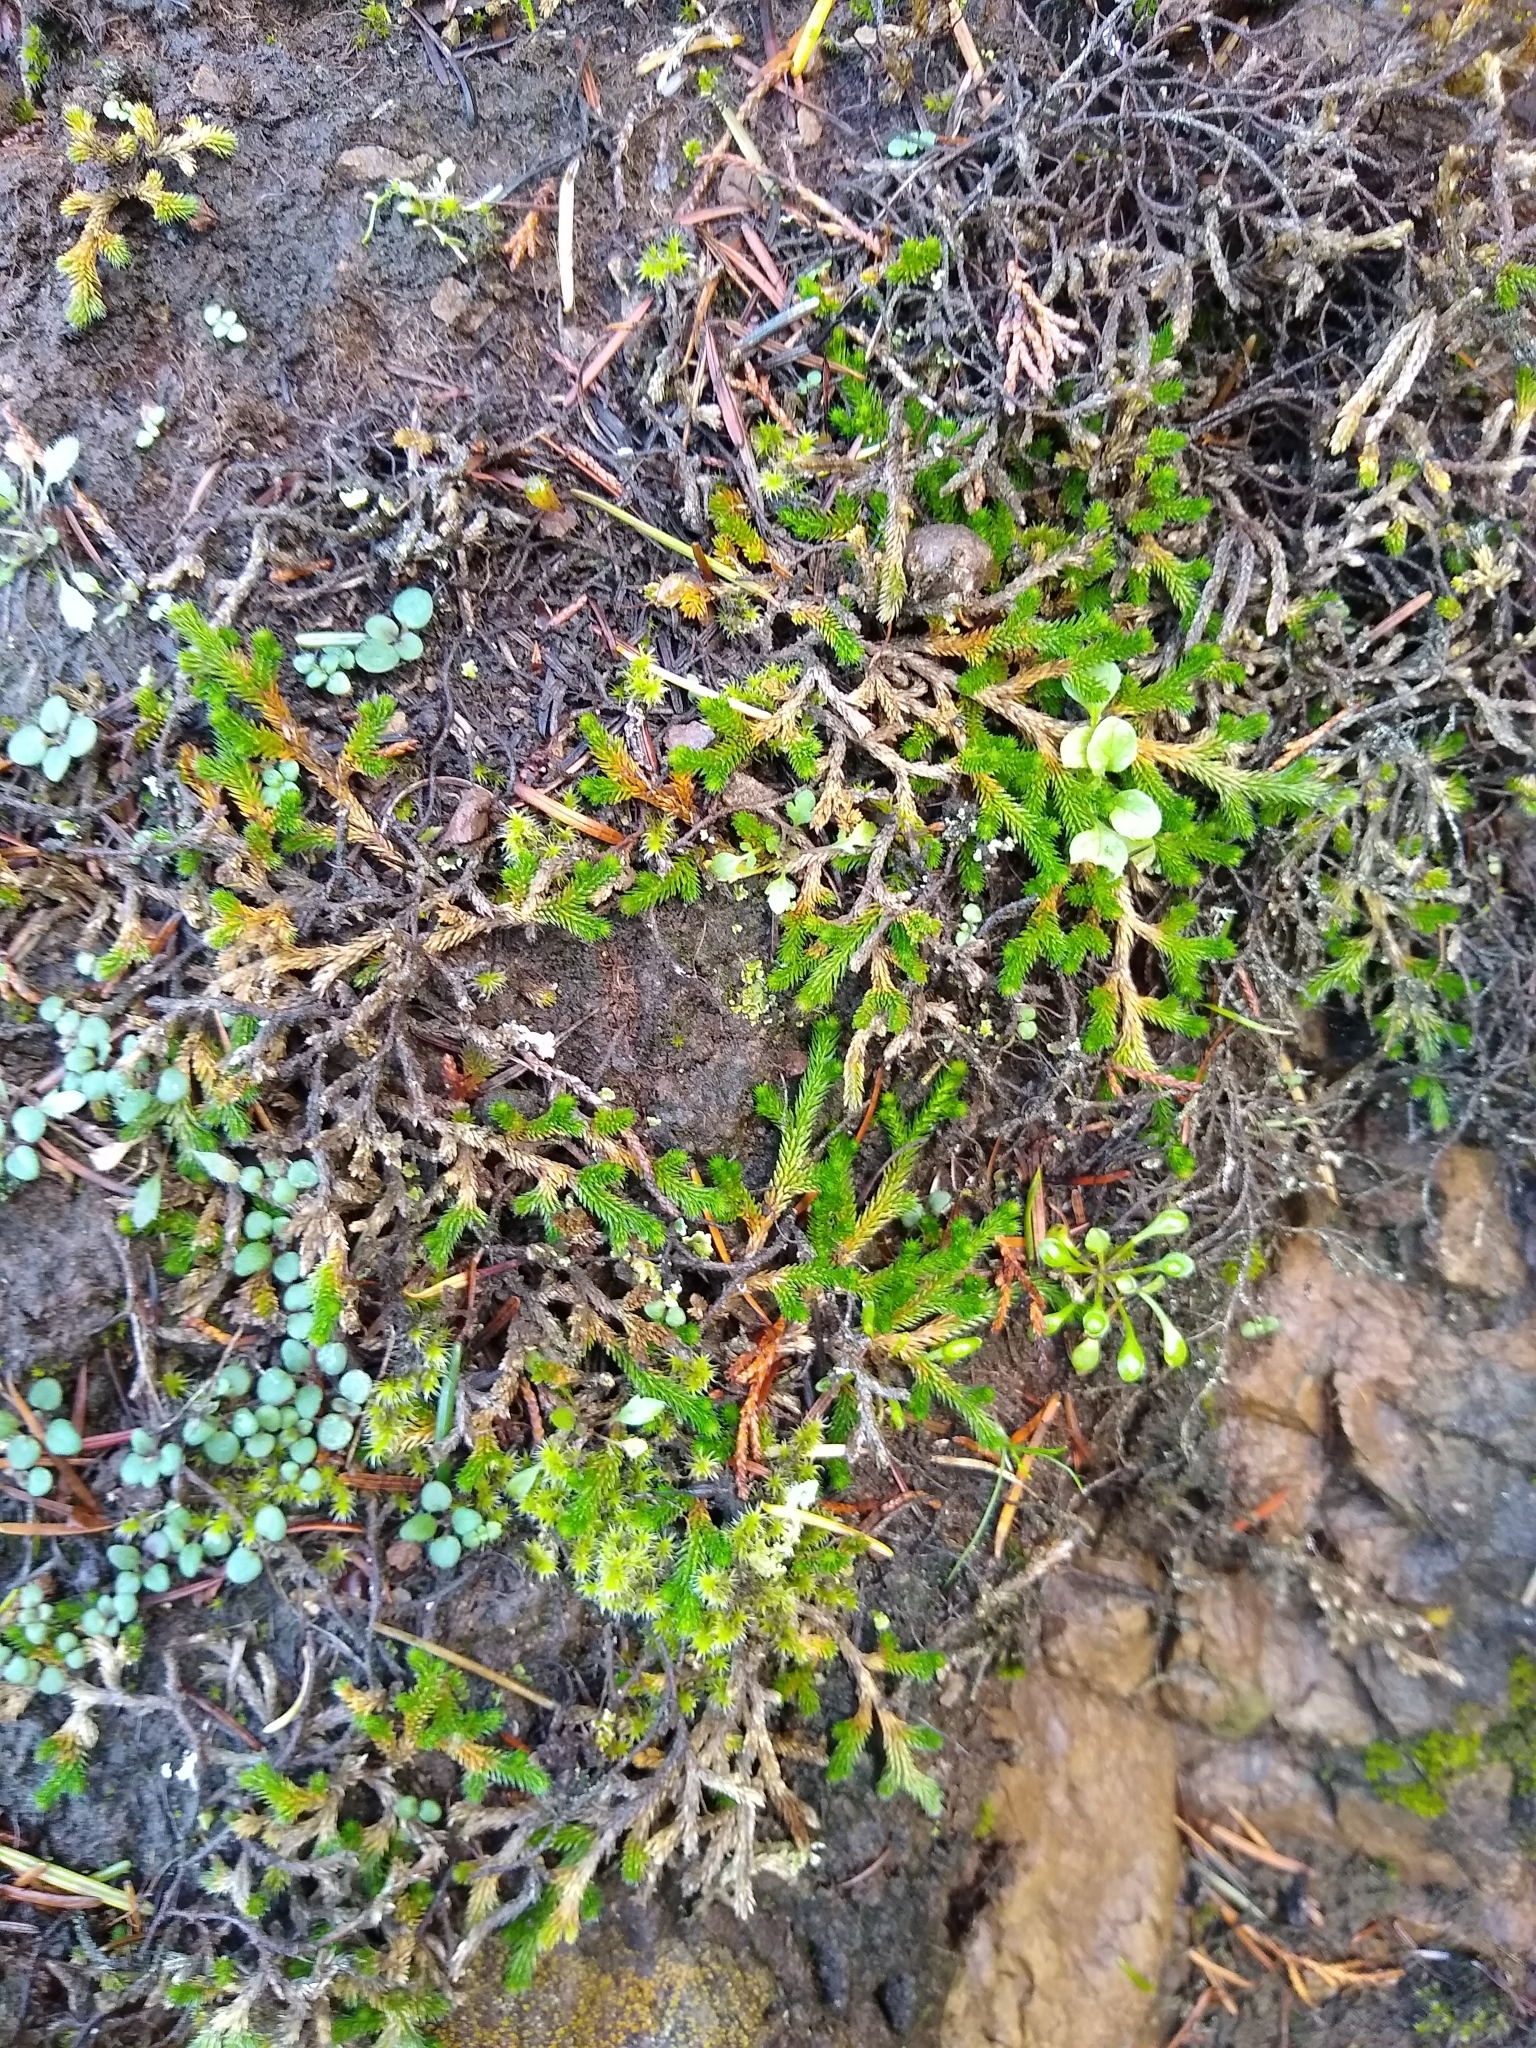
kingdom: Plantae
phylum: Tracheophyta
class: Lycopodiopsida
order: Selaginellales
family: Selaginellaceae
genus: Selaginella
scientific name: Selaginella wallacei
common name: Wallace's selaginella
